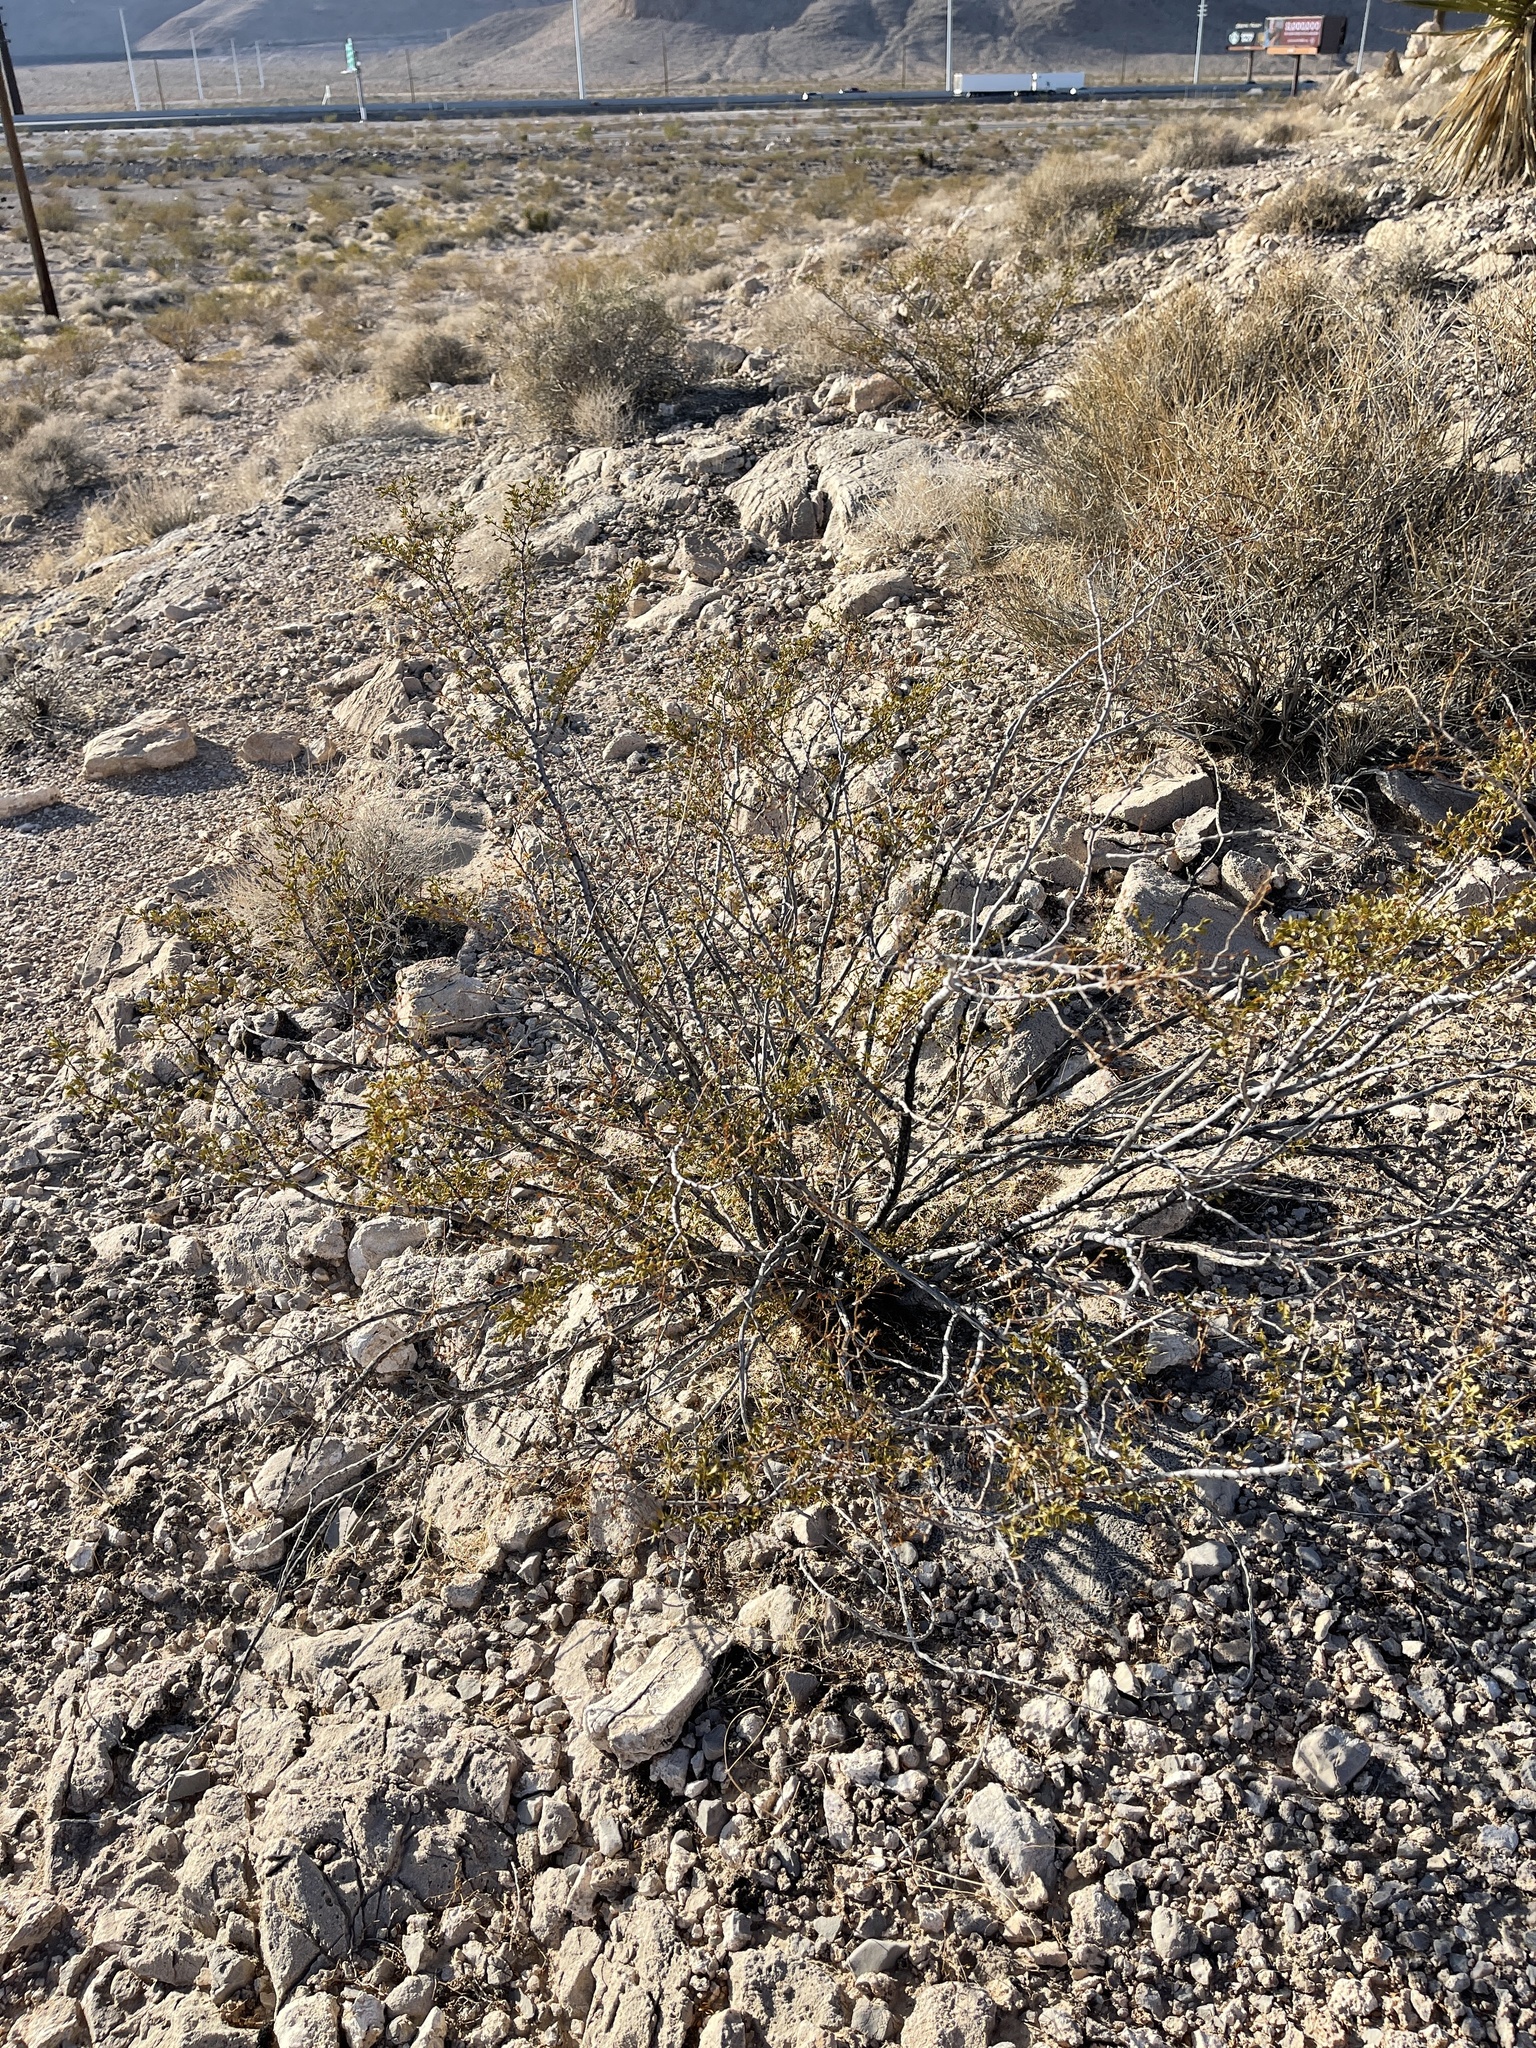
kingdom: Plantae
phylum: Tracheophyta
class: Magnoliopsida
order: Zygophyllales
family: Zygophyllaceae
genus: Larrea
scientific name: Larrea tridentata
